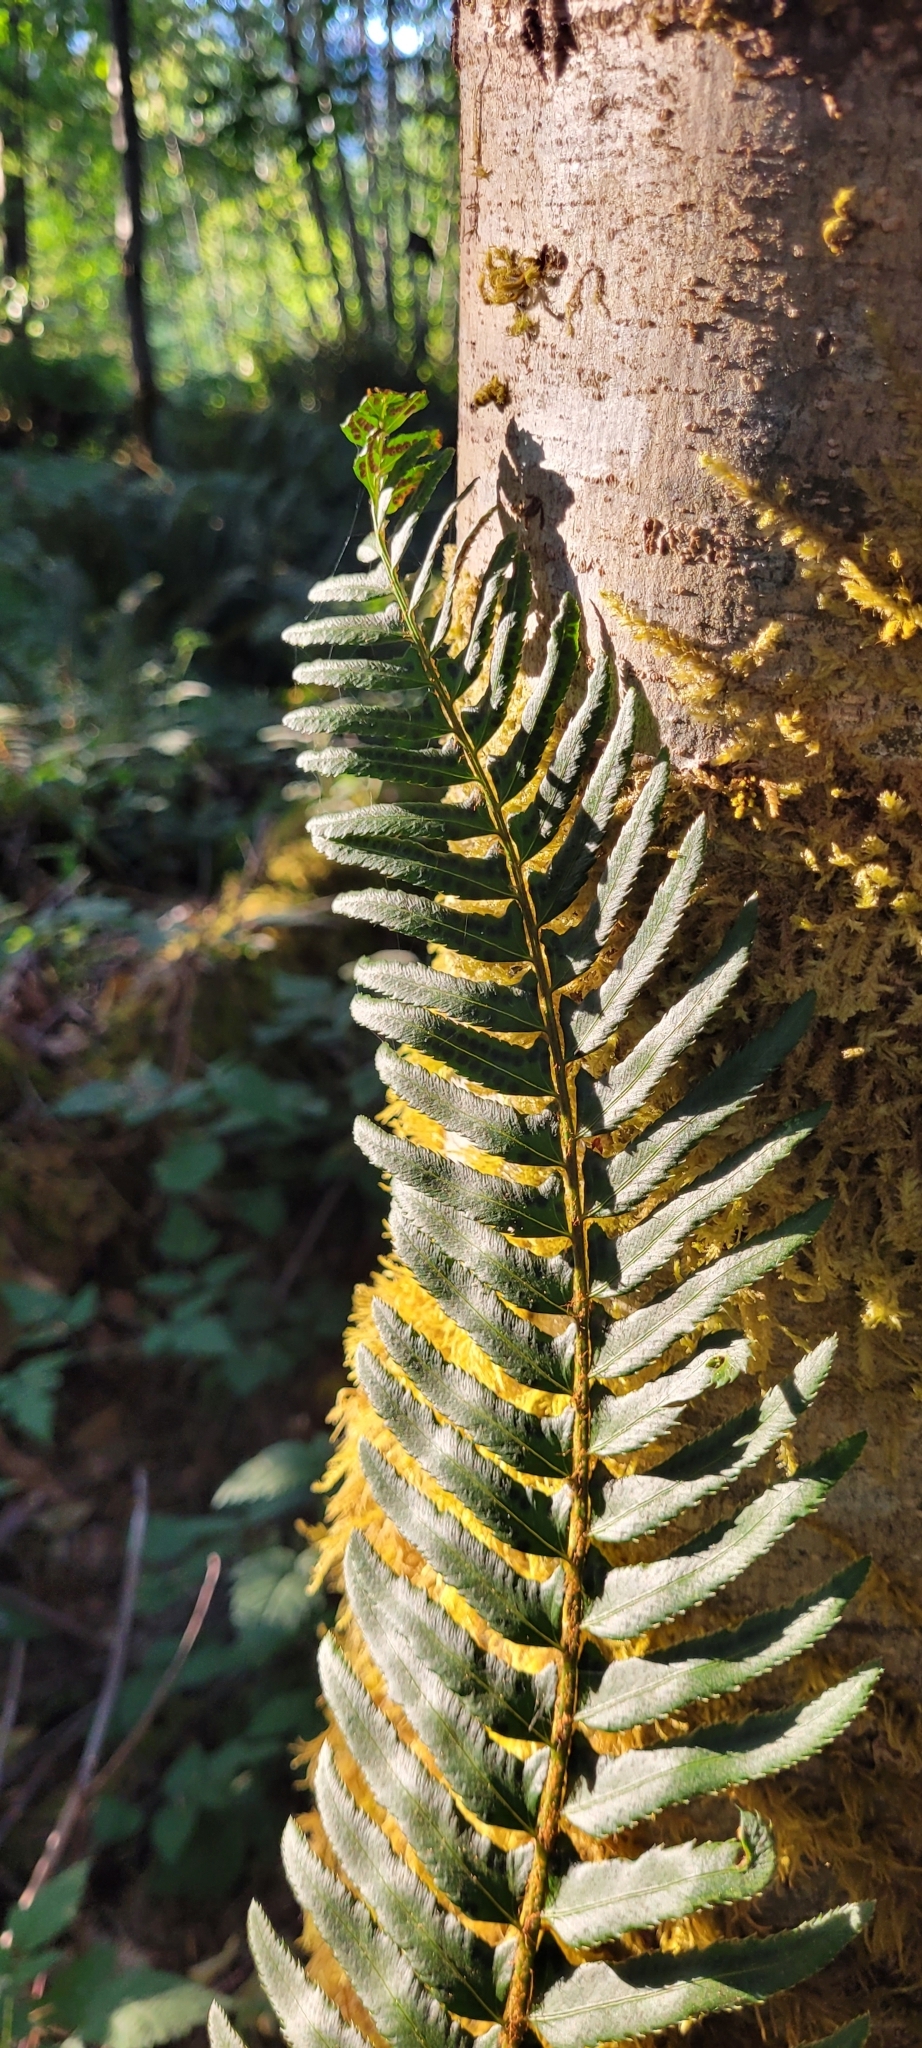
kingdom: Plantae
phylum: Tracheophyta
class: Polypodiopsida
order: Polypodiales
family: Dryopteridaceae
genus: Polystichum
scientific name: Polystichum munitum
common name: Western sword-fern
